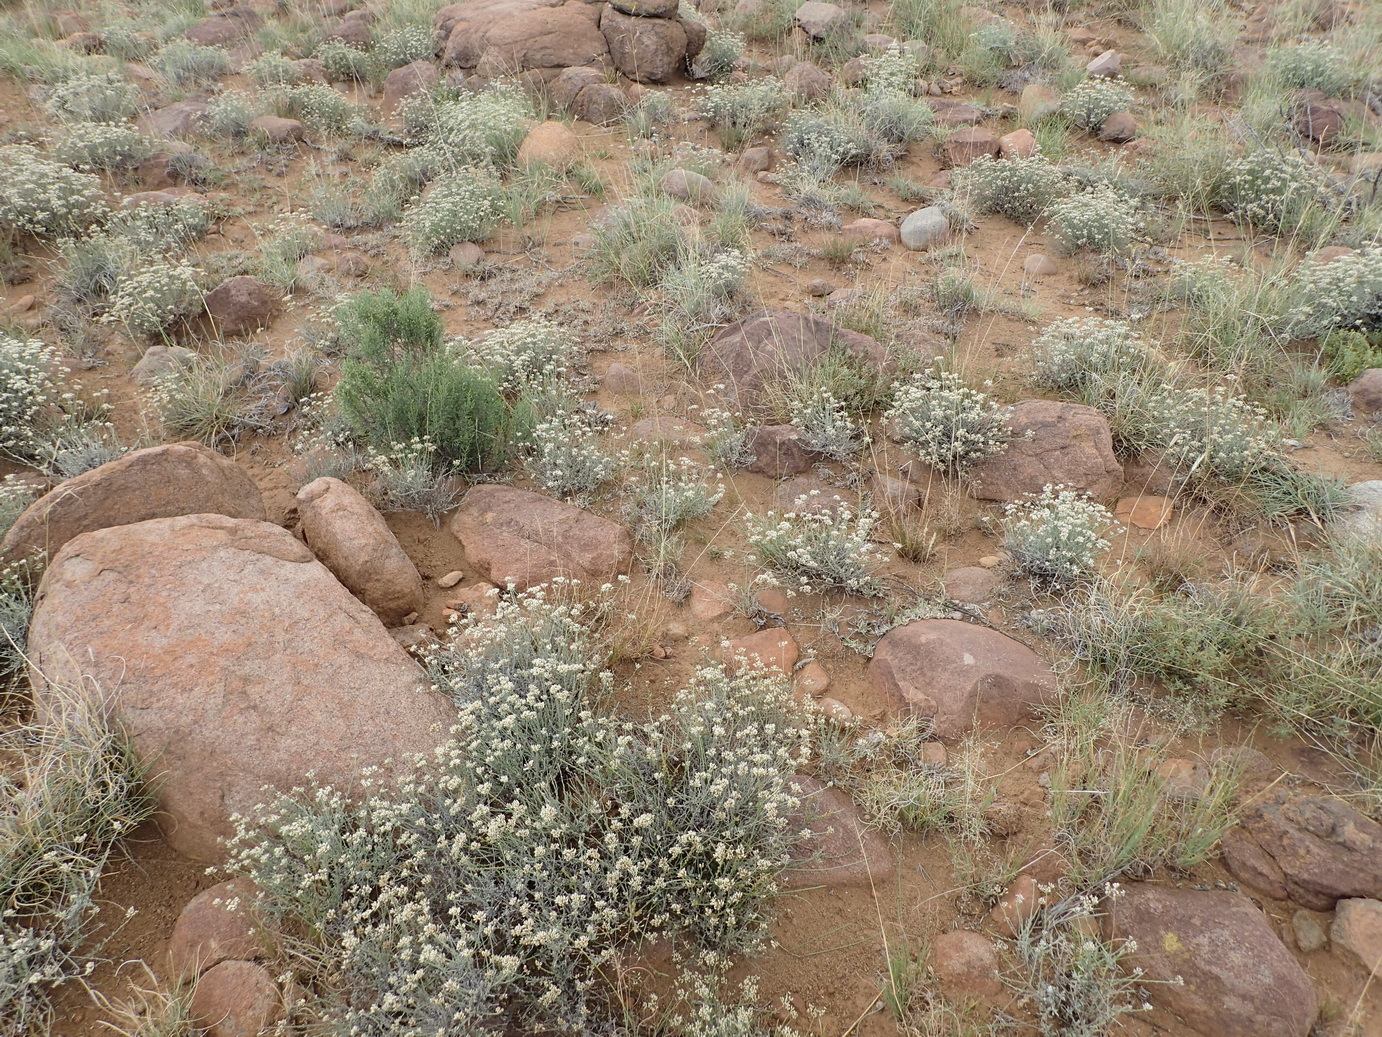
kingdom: Plantae
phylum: Tracheophyta
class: Magnoliopsida
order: Asterales
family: Asteraceae
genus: Helichrysum
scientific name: Helichrysum zeyheri
